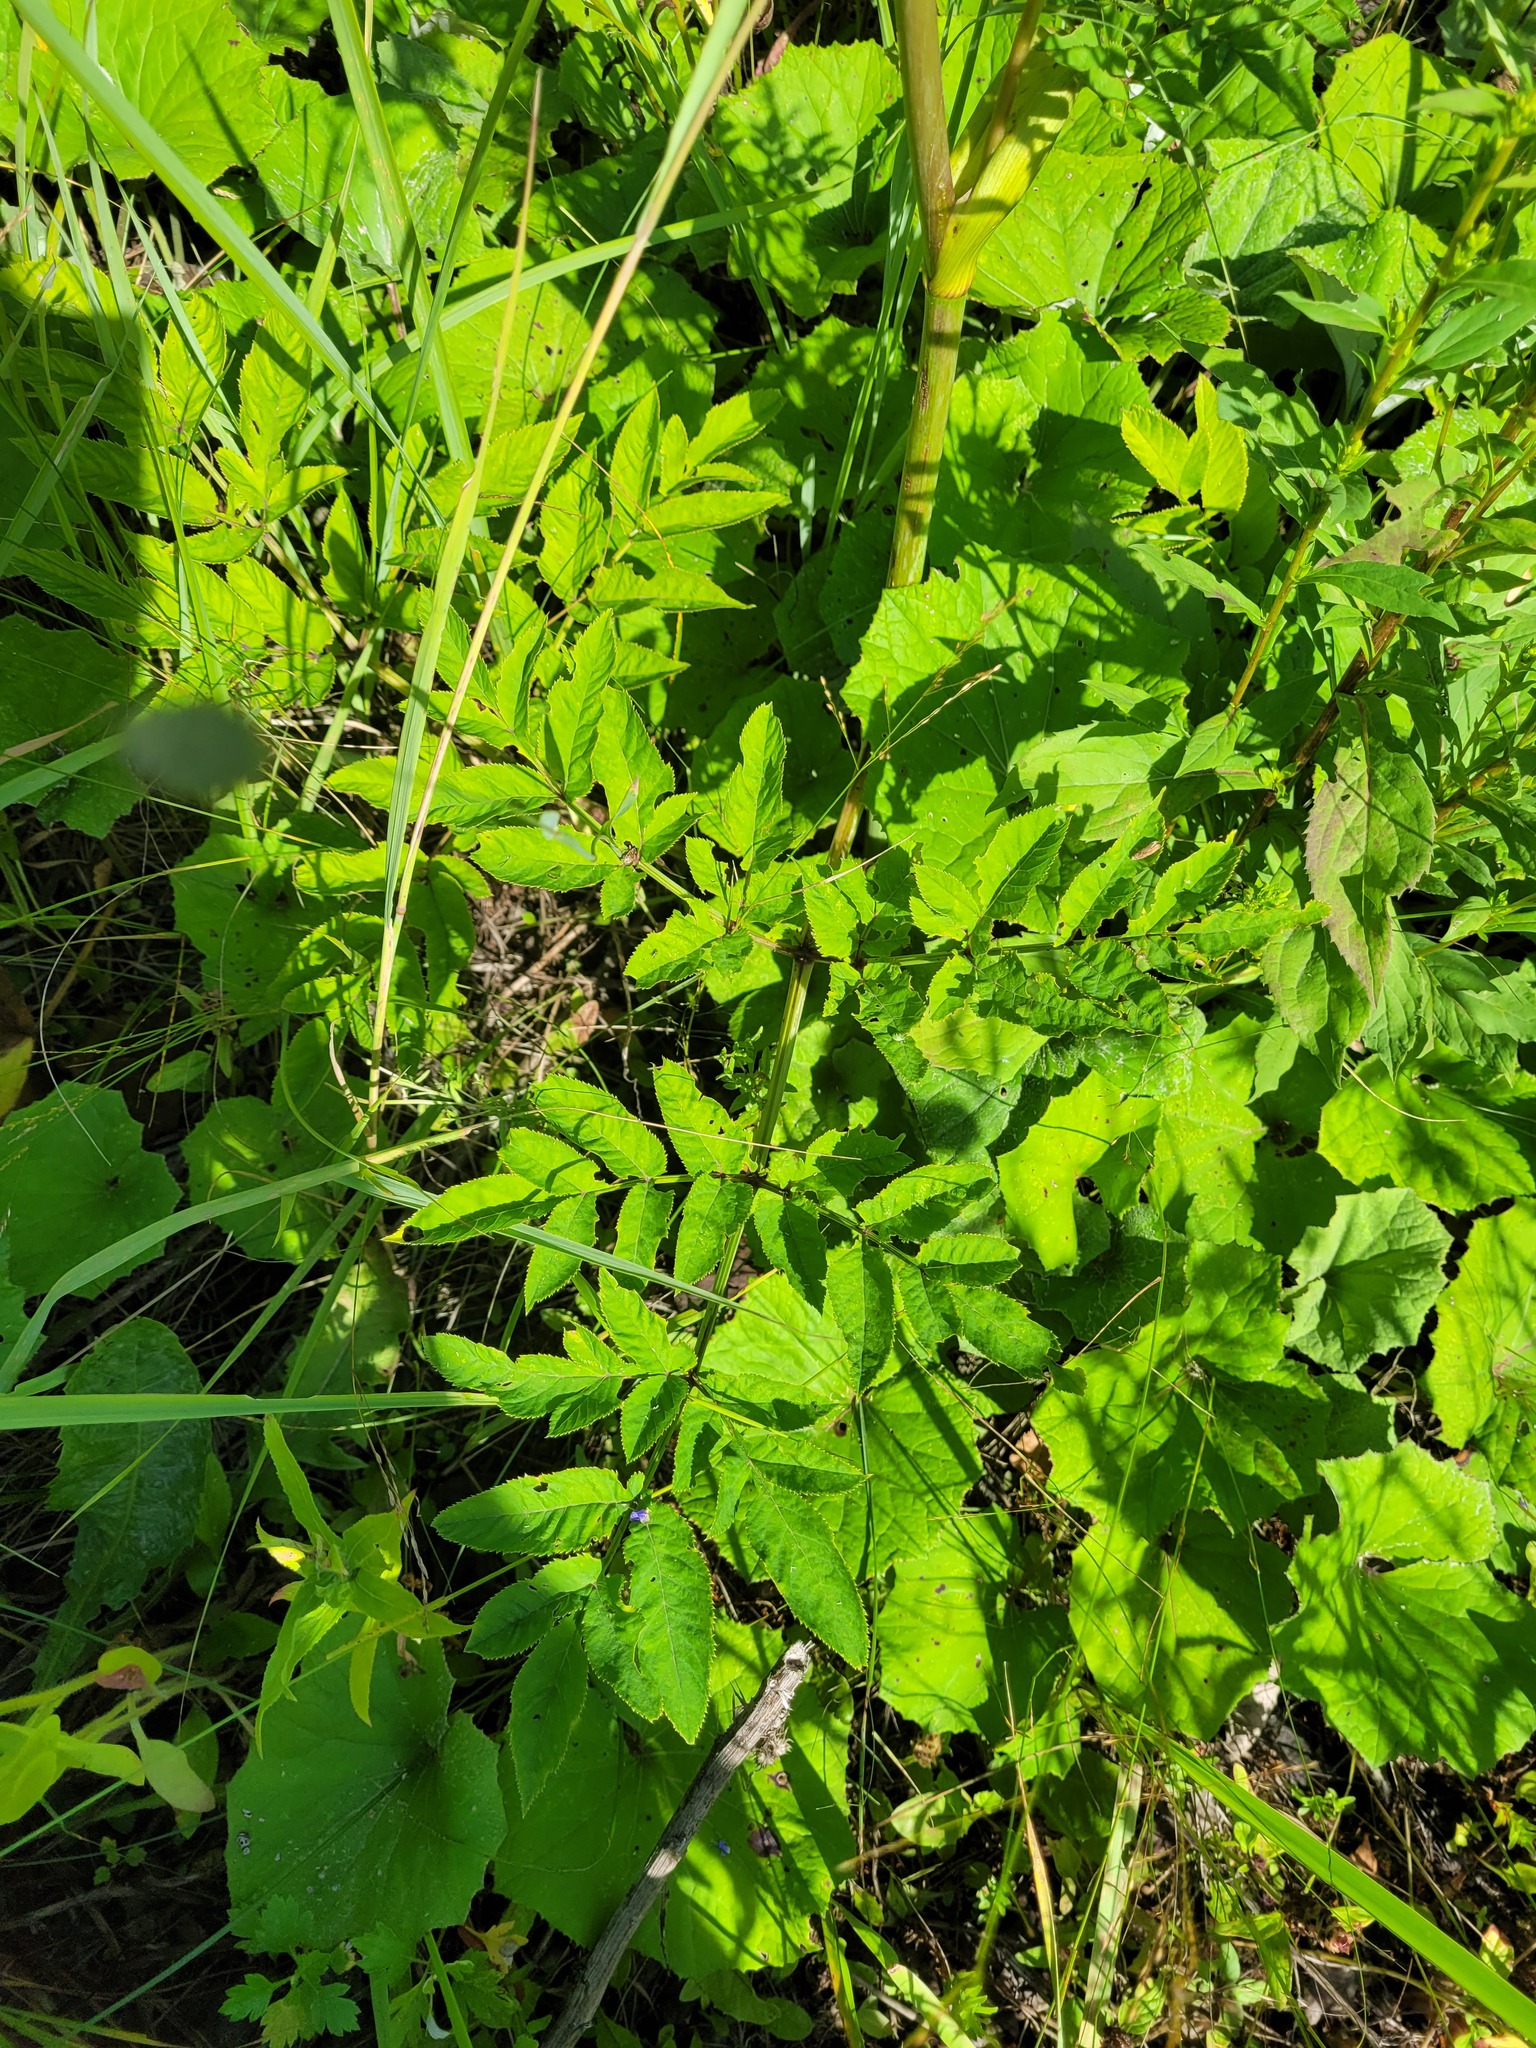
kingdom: Plantae
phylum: Tracheophyta
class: Magnoliopsida
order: Apiales
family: Apiaceae
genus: Angelica
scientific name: Angelica sylvestris
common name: Wild angelica
